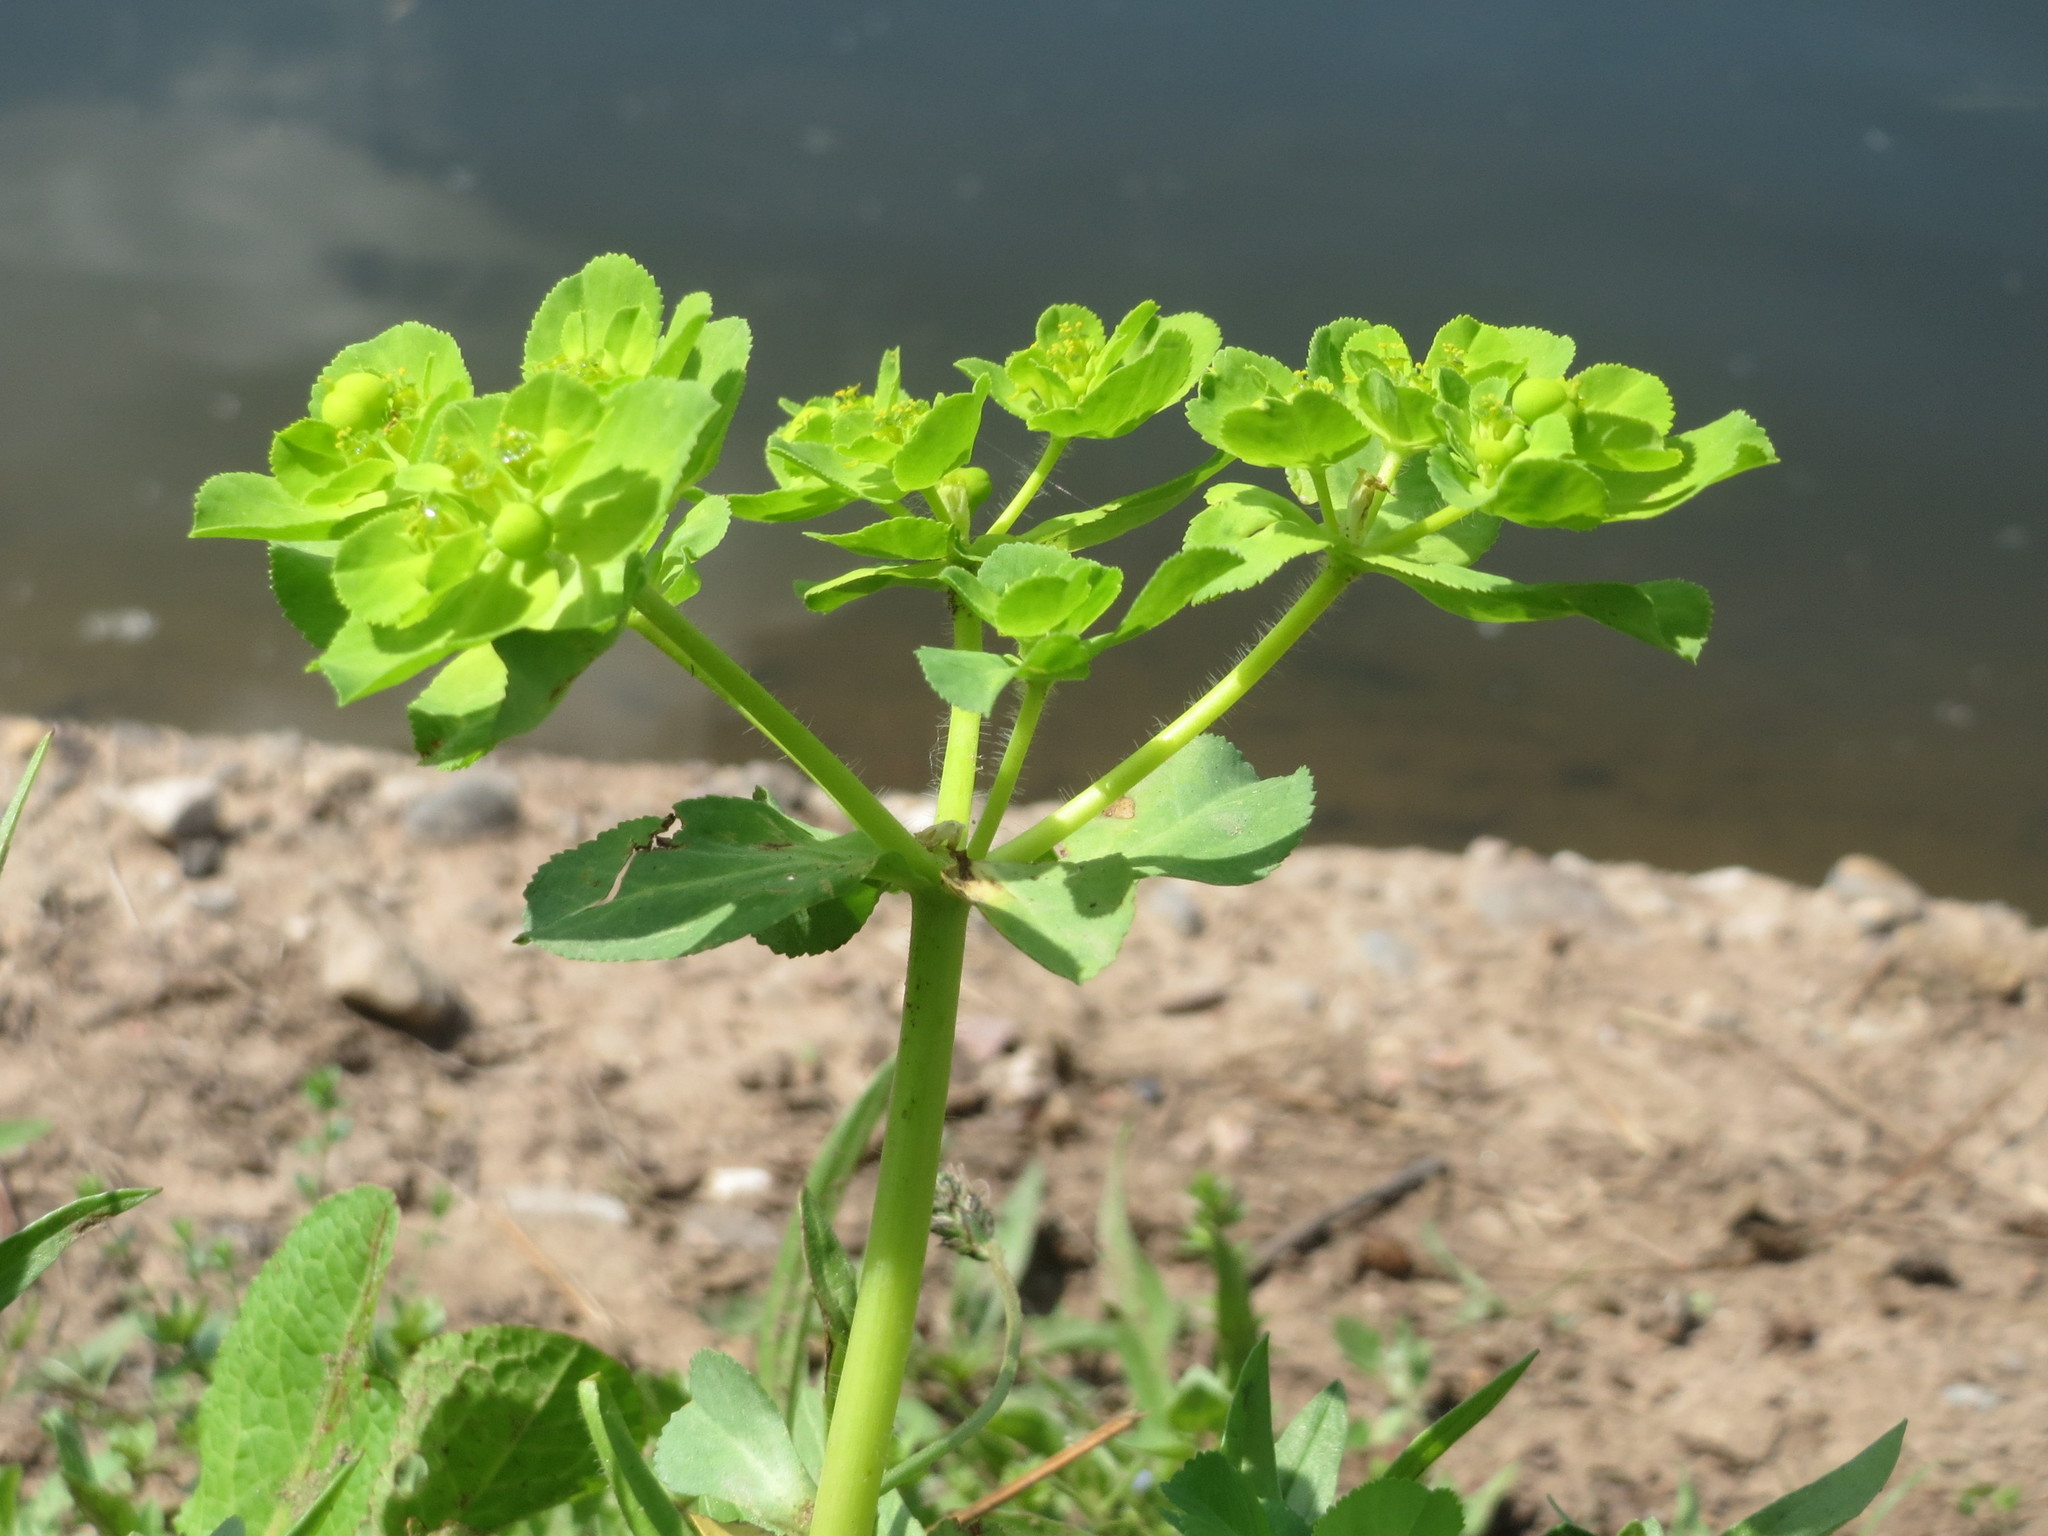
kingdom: Plantae
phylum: Tracheophyta
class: Magnoliopsida
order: Malpighiales
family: Euphorbiaceae
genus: Euphorbia
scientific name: Euphorbia helioscopia
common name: Sun spurge
